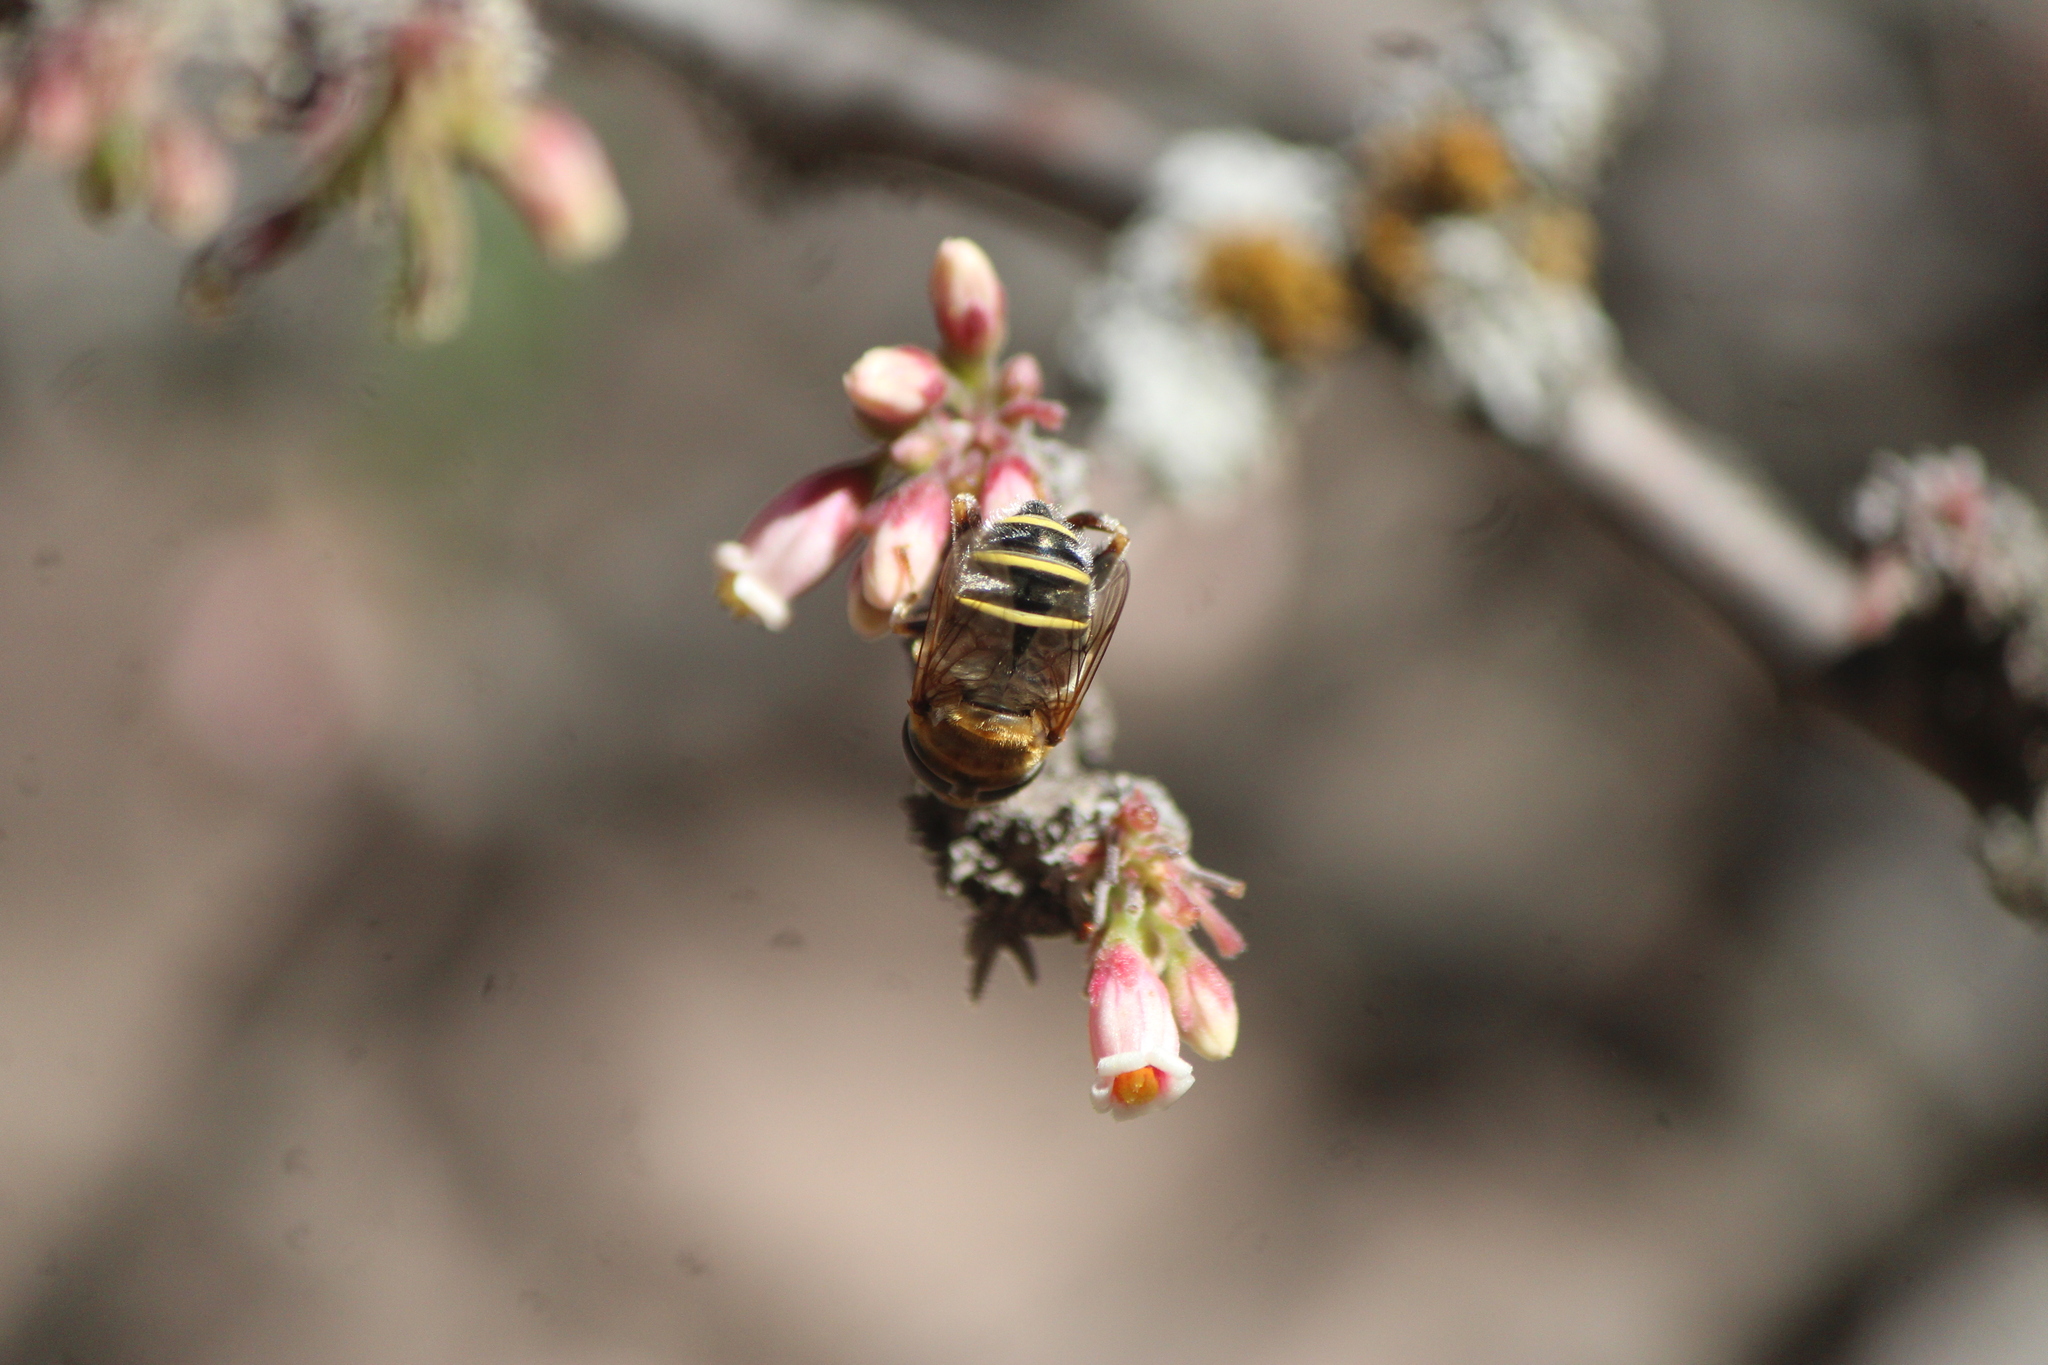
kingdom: Animalia
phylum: Arthropoda
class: Insecta
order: Diptera
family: Syrphidae
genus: Palpada
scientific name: Palpada mexicana
